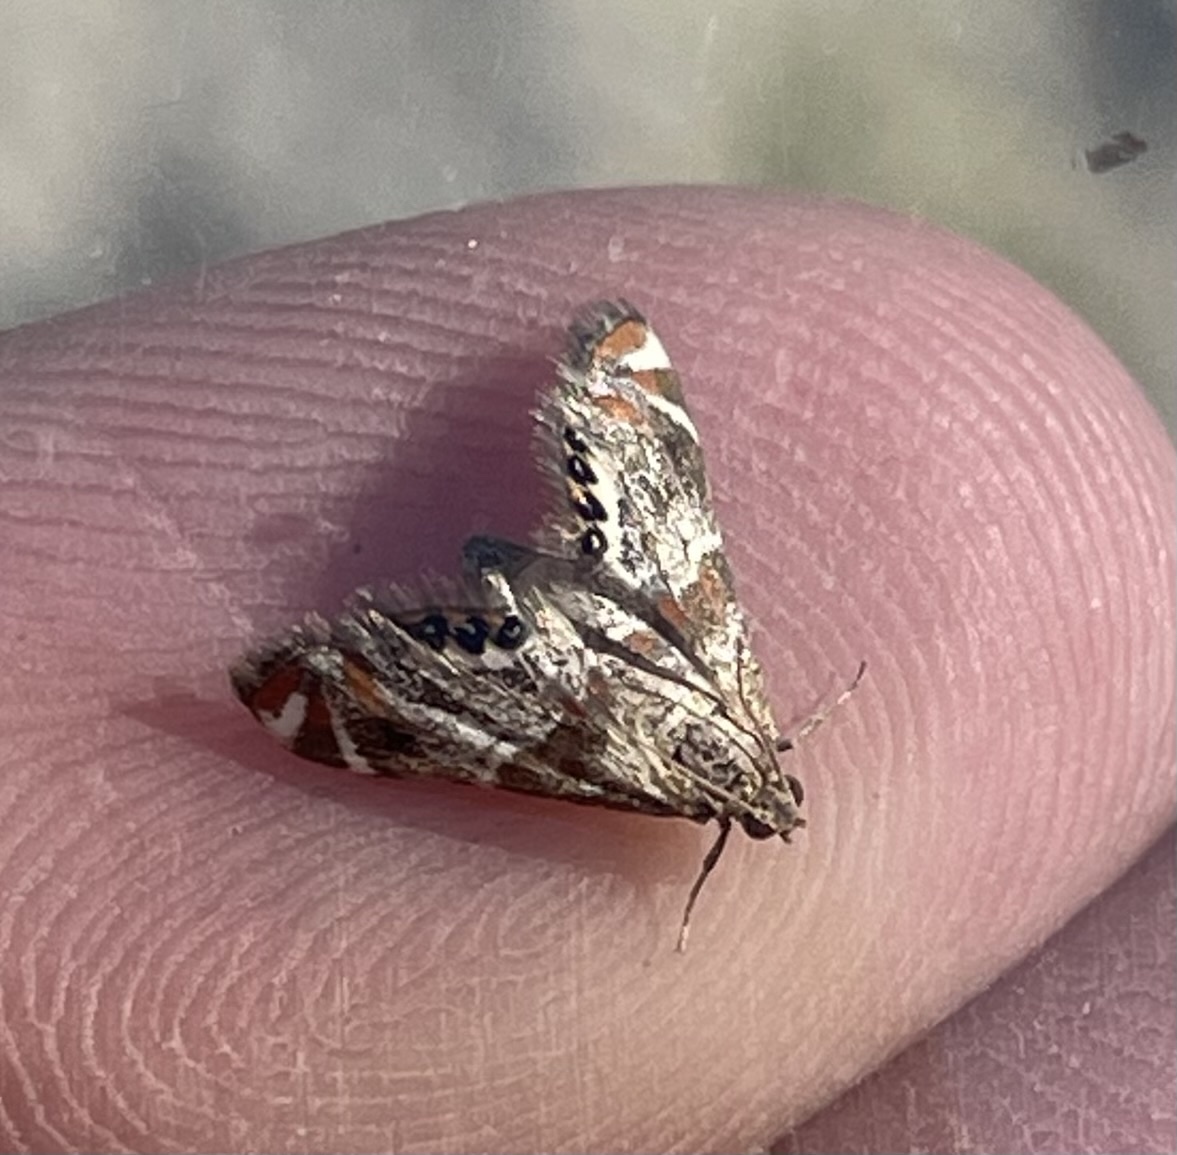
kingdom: Animalia
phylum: Arthropoda
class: Insecta
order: Lepidoptera
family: Crambidae
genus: Petrophila
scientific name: Petrophila jaliscalis
